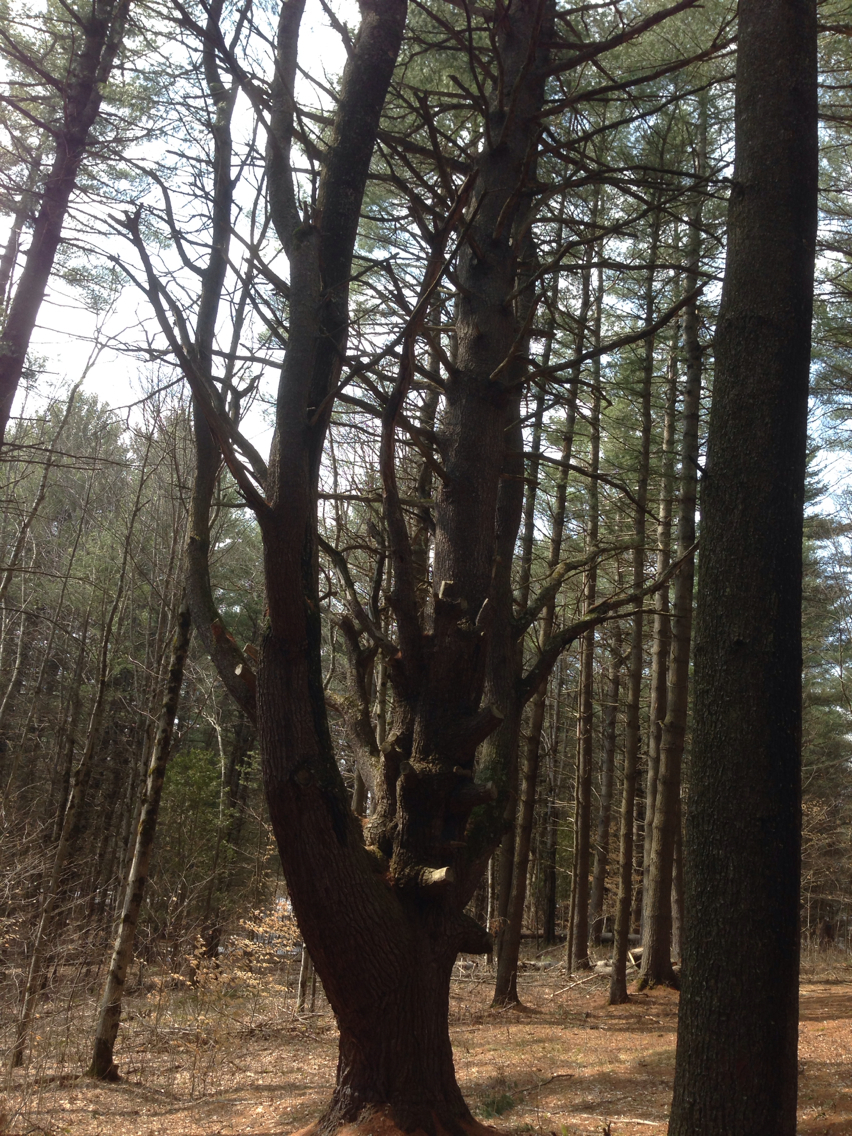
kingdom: Plantae
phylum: Tracheophyta
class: Pinopsida
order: Pinales
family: Pinaceae
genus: Pinus
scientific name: Pinus strobus
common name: Weymouth pine
